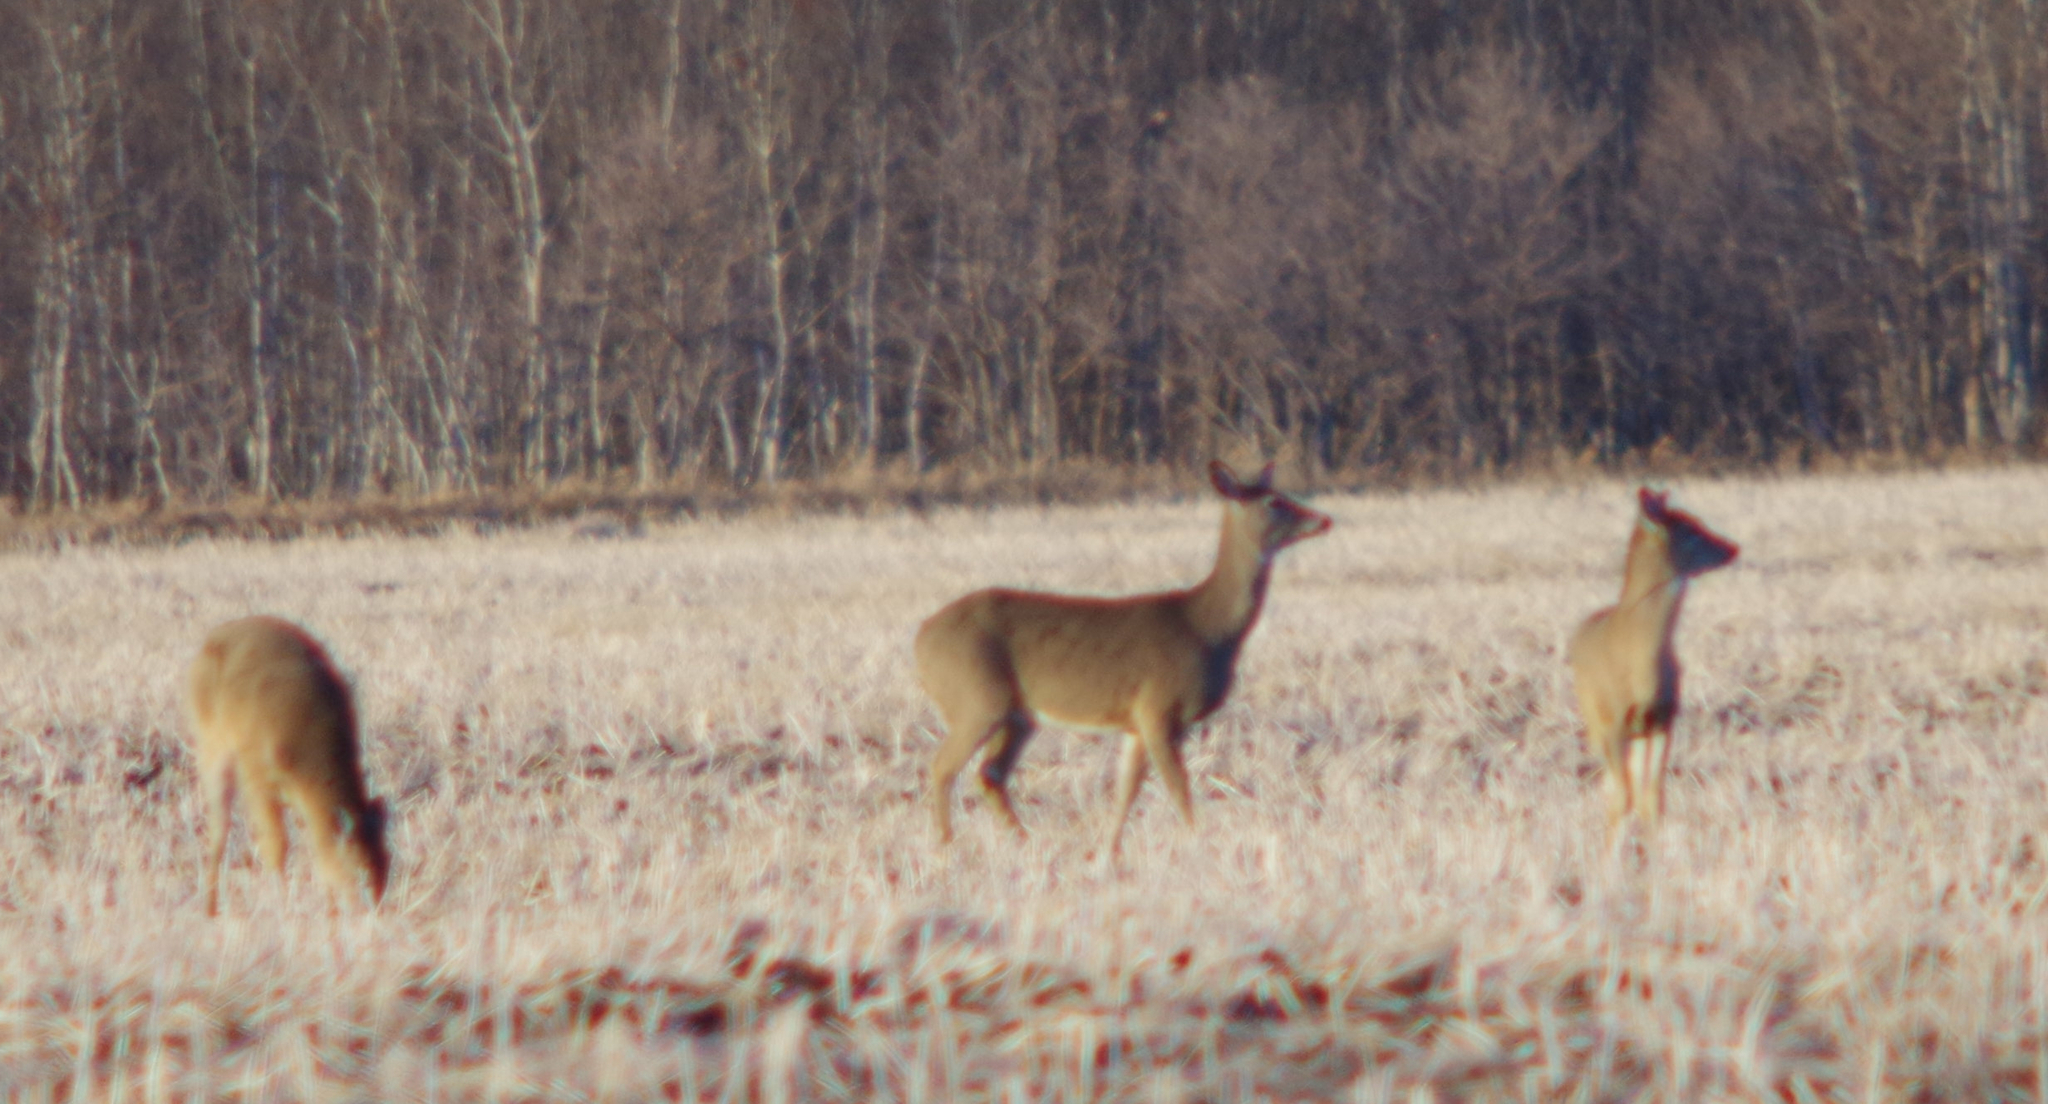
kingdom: Animalia
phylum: Chordata
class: Mammalia
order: Artiodactyla
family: Cervidae
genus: Odocoileus
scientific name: Odocoileus virginianus
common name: White-tailed deer
